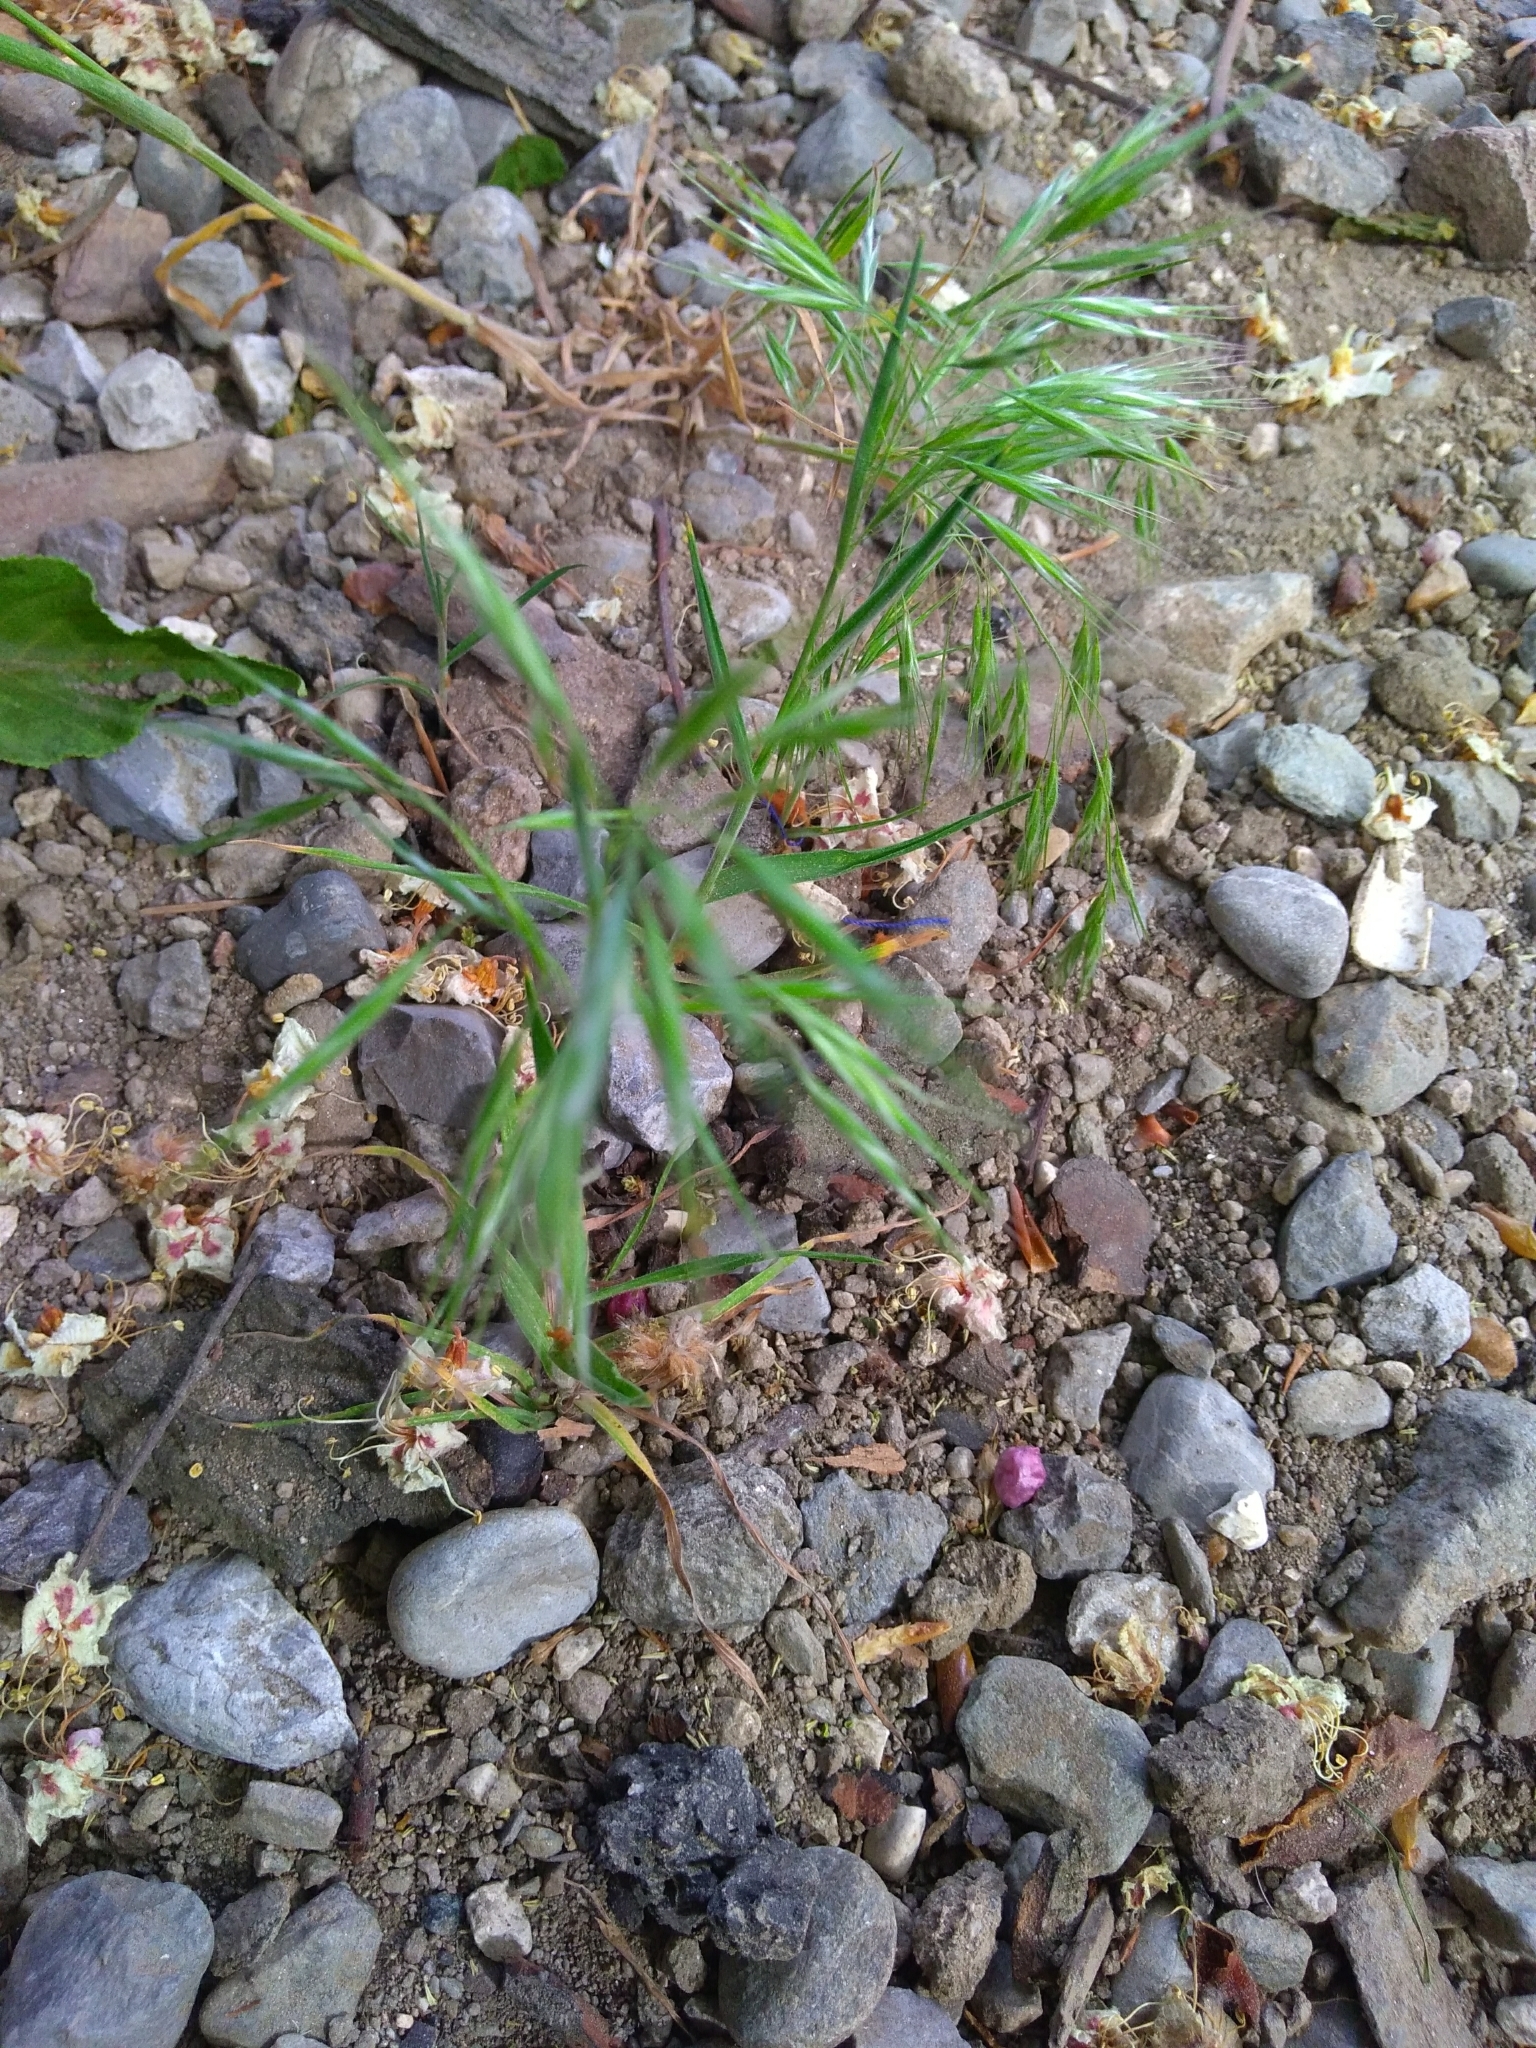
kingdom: Plantae
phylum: Tracheophyta
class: Liliopsida
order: Poales
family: Poaceae
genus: Bromus
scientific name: Bromus sterilis
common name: Poverty brome
